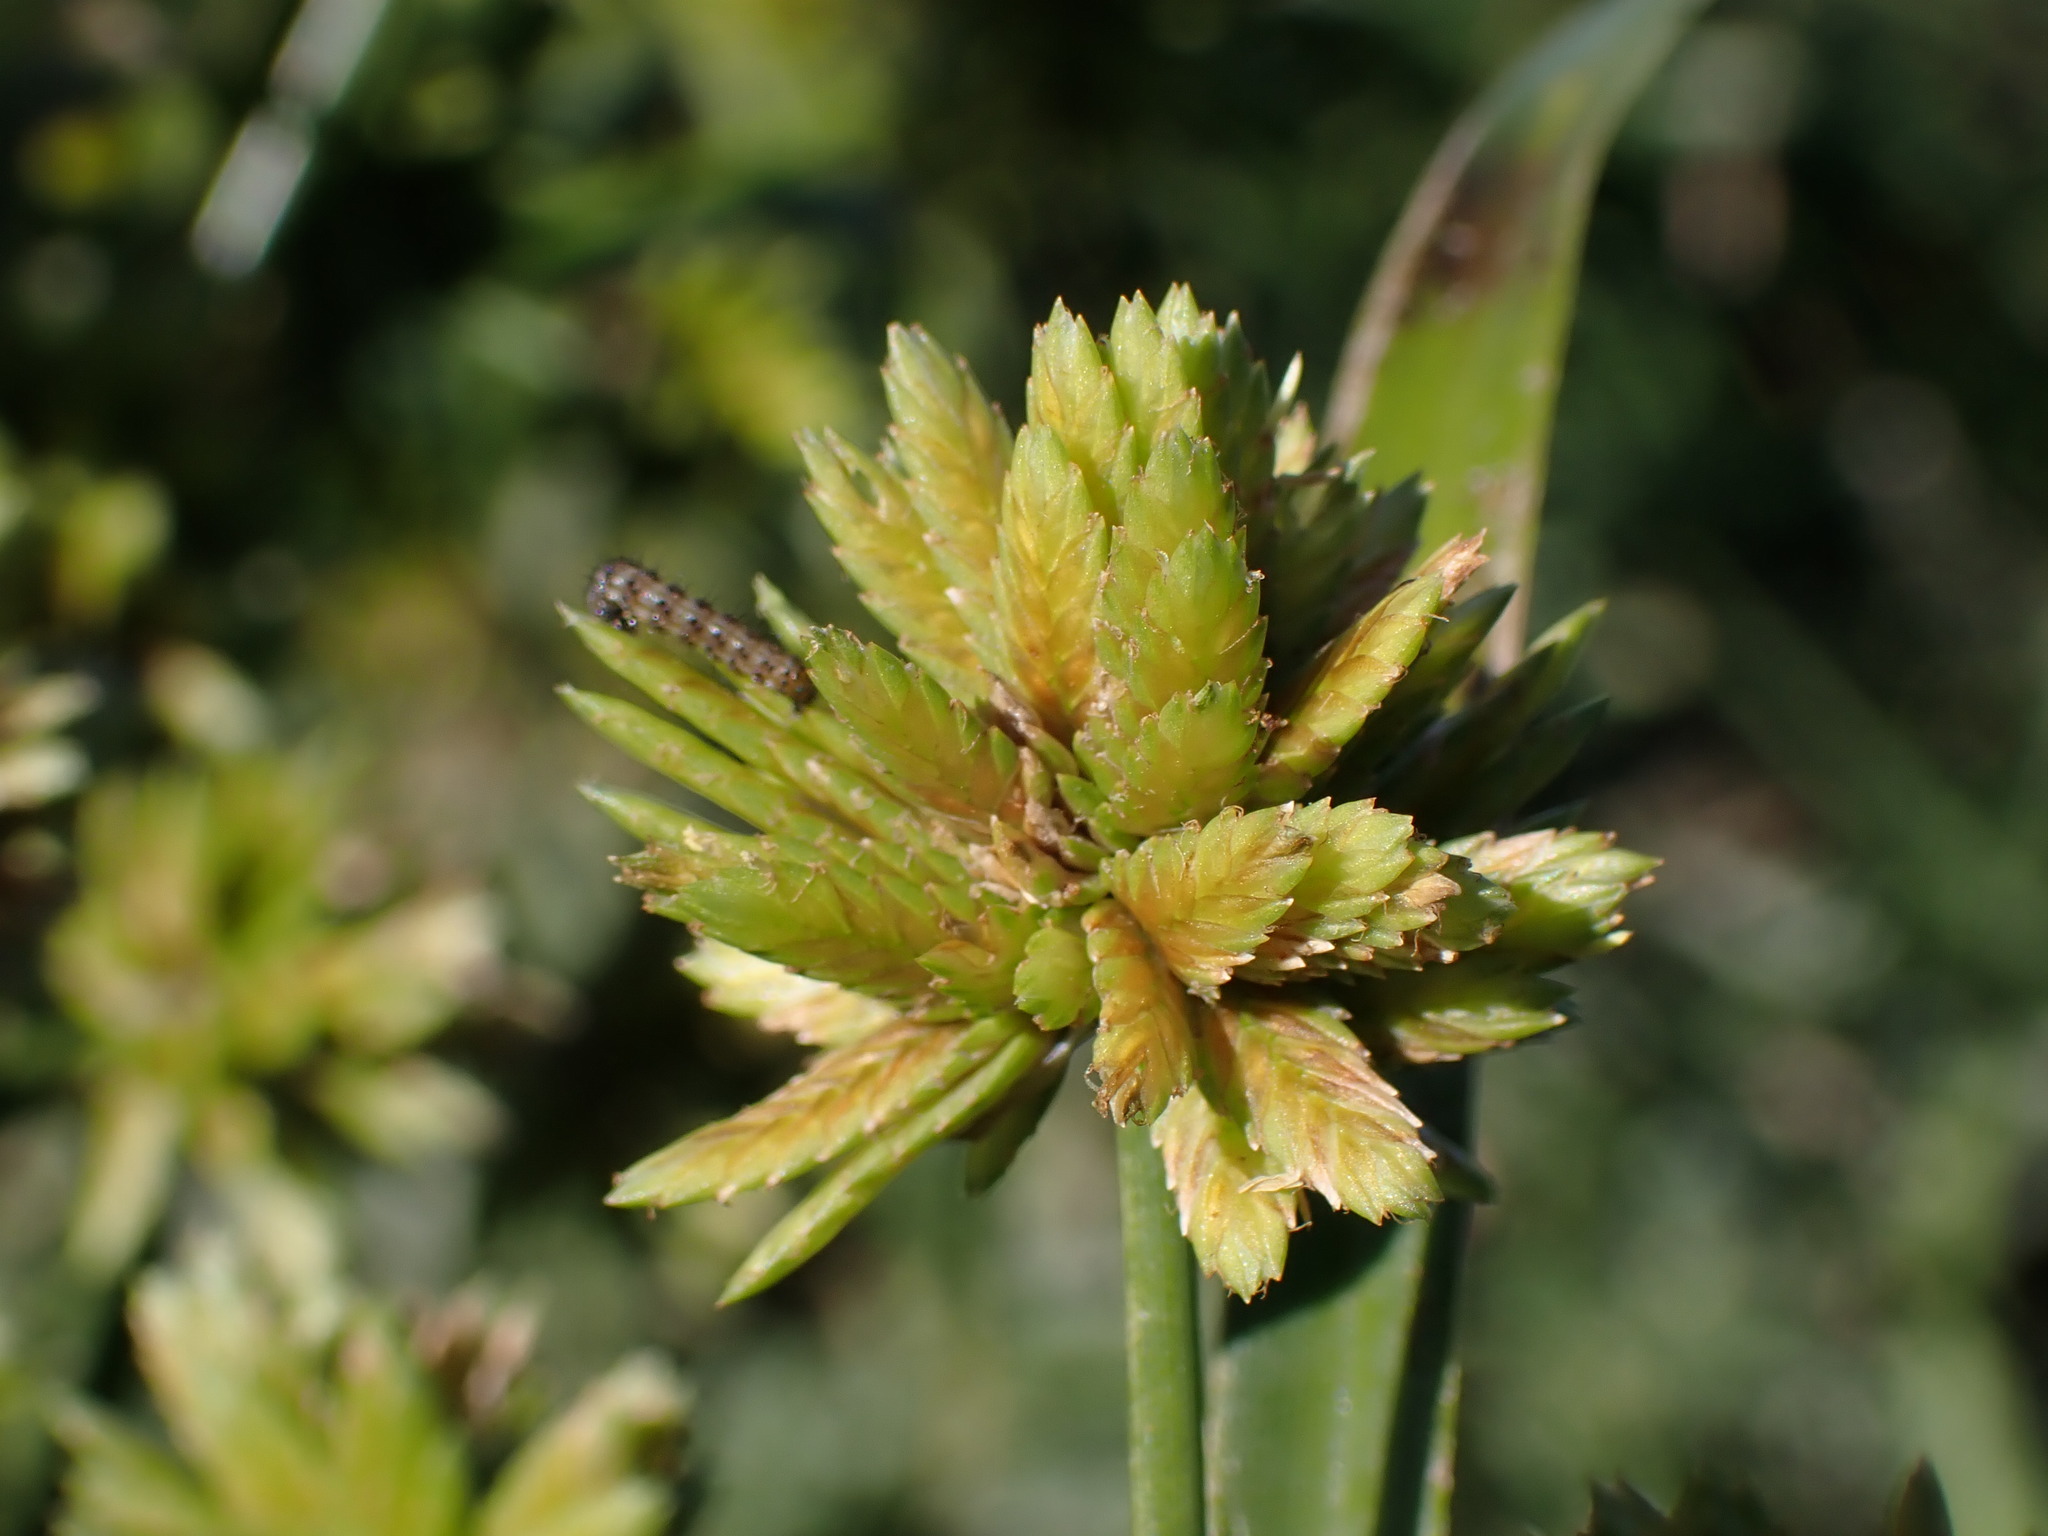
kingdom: Plantae
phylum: Tracheophyta
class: Liliopsida
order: Poales
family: Cyperaceae
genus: Cyperus
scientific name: Cyperus eragrostis
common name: Tall flatsedge
